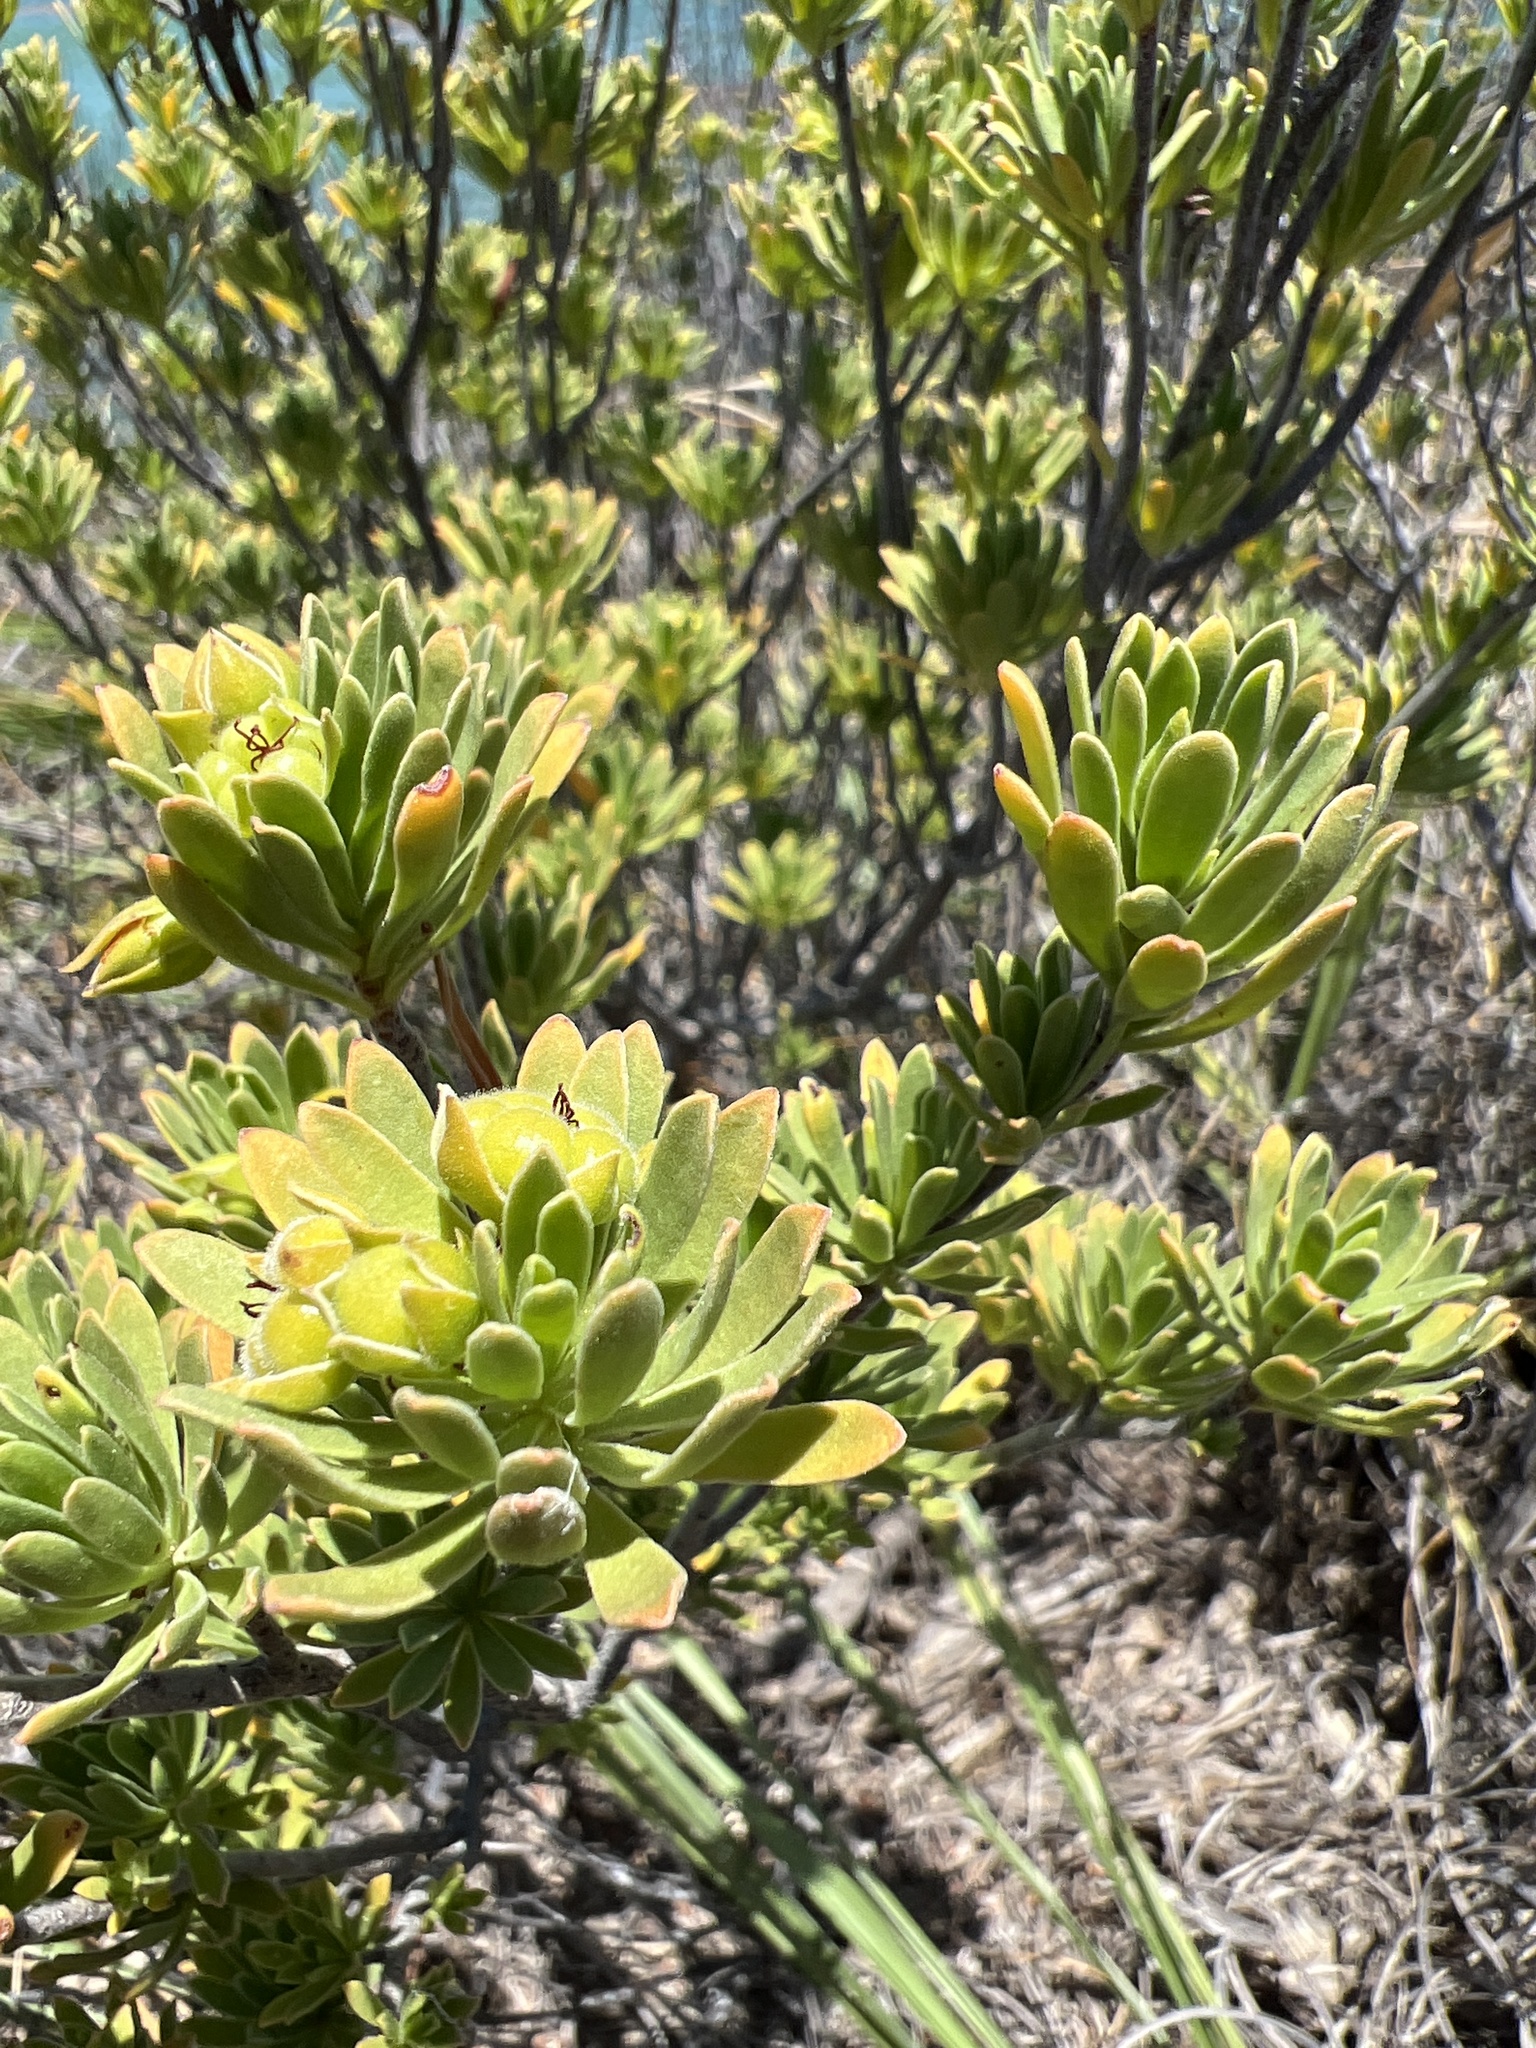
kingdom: Plantae
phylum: Tracheophyta
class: Magnoliopsida
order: Fabales
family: Surianaceae
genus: Suriana
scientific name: Suriana maritima
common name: Bay-cedar
